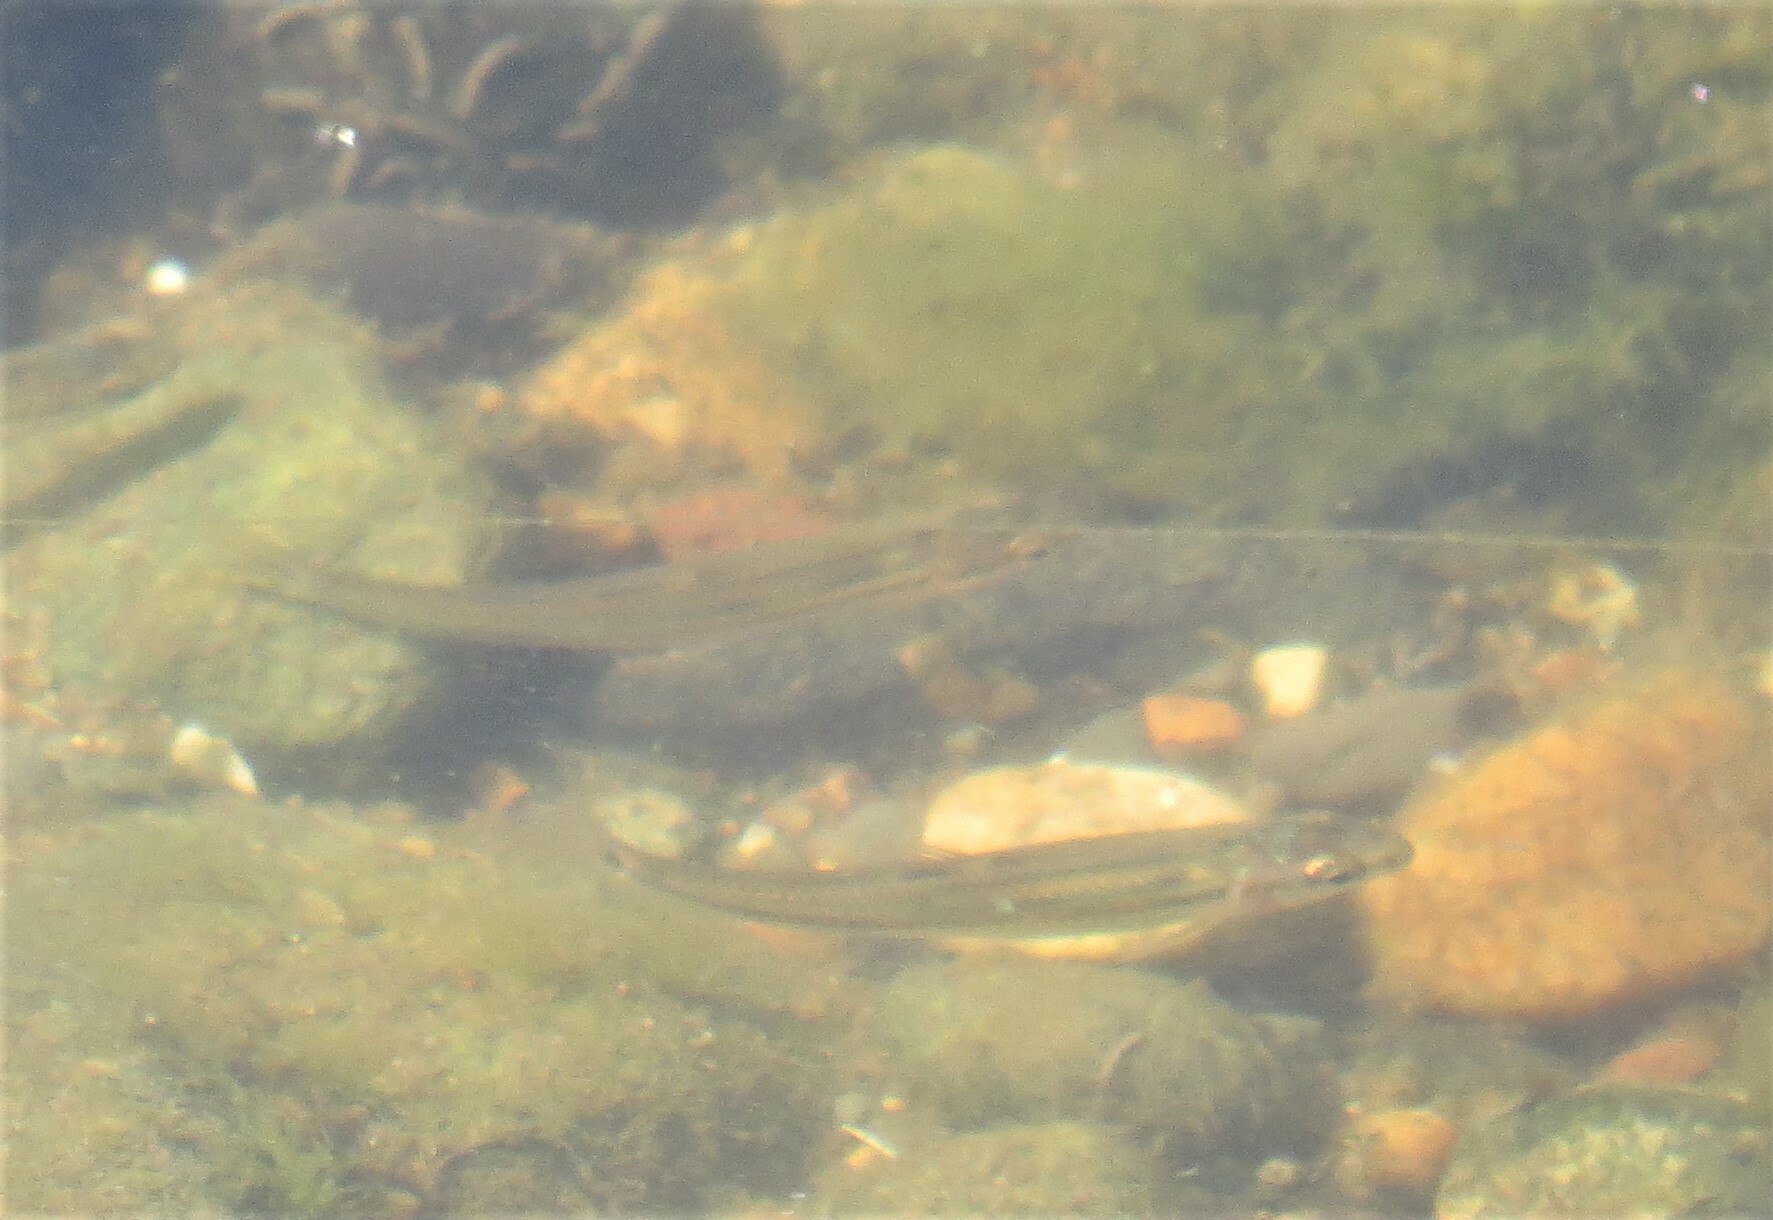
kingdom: Animalia
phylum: Chordata
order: Cypriniformes
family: Cyprinidae
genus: Pimephales
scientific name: Pimephales notatus
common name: Bluntnose minnow
